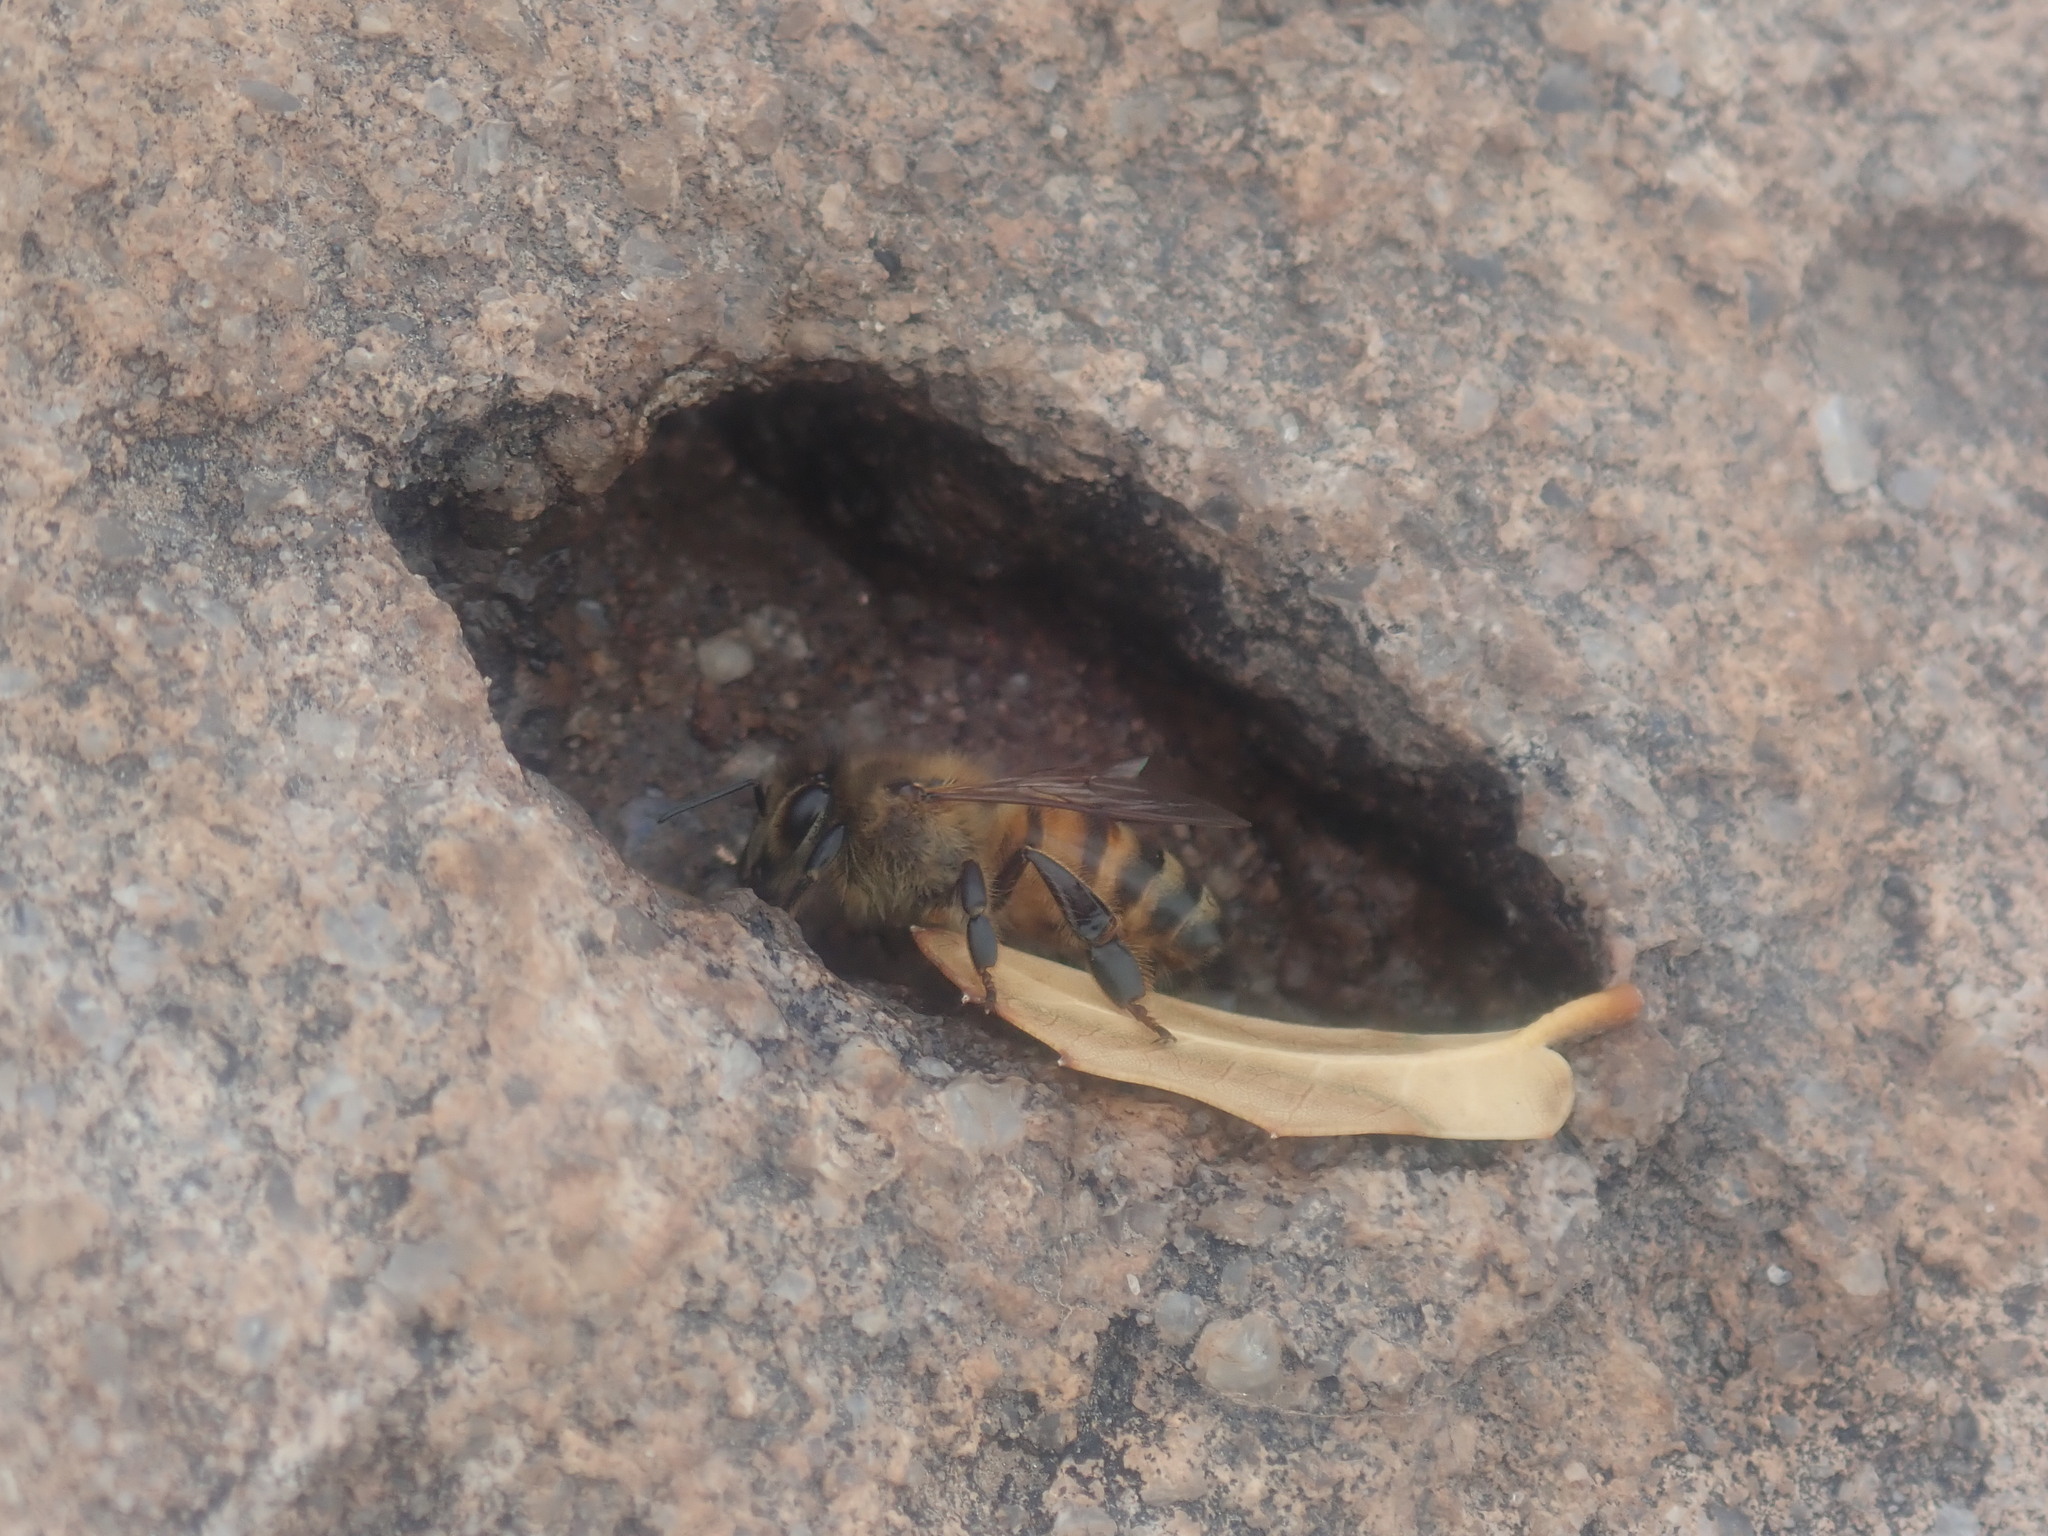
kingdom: Animalia
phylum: Arthropoda
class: Insecta
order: Hymenoptera
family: Apidae
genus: Apis
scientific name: Apis mellifera
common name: Honey bee
